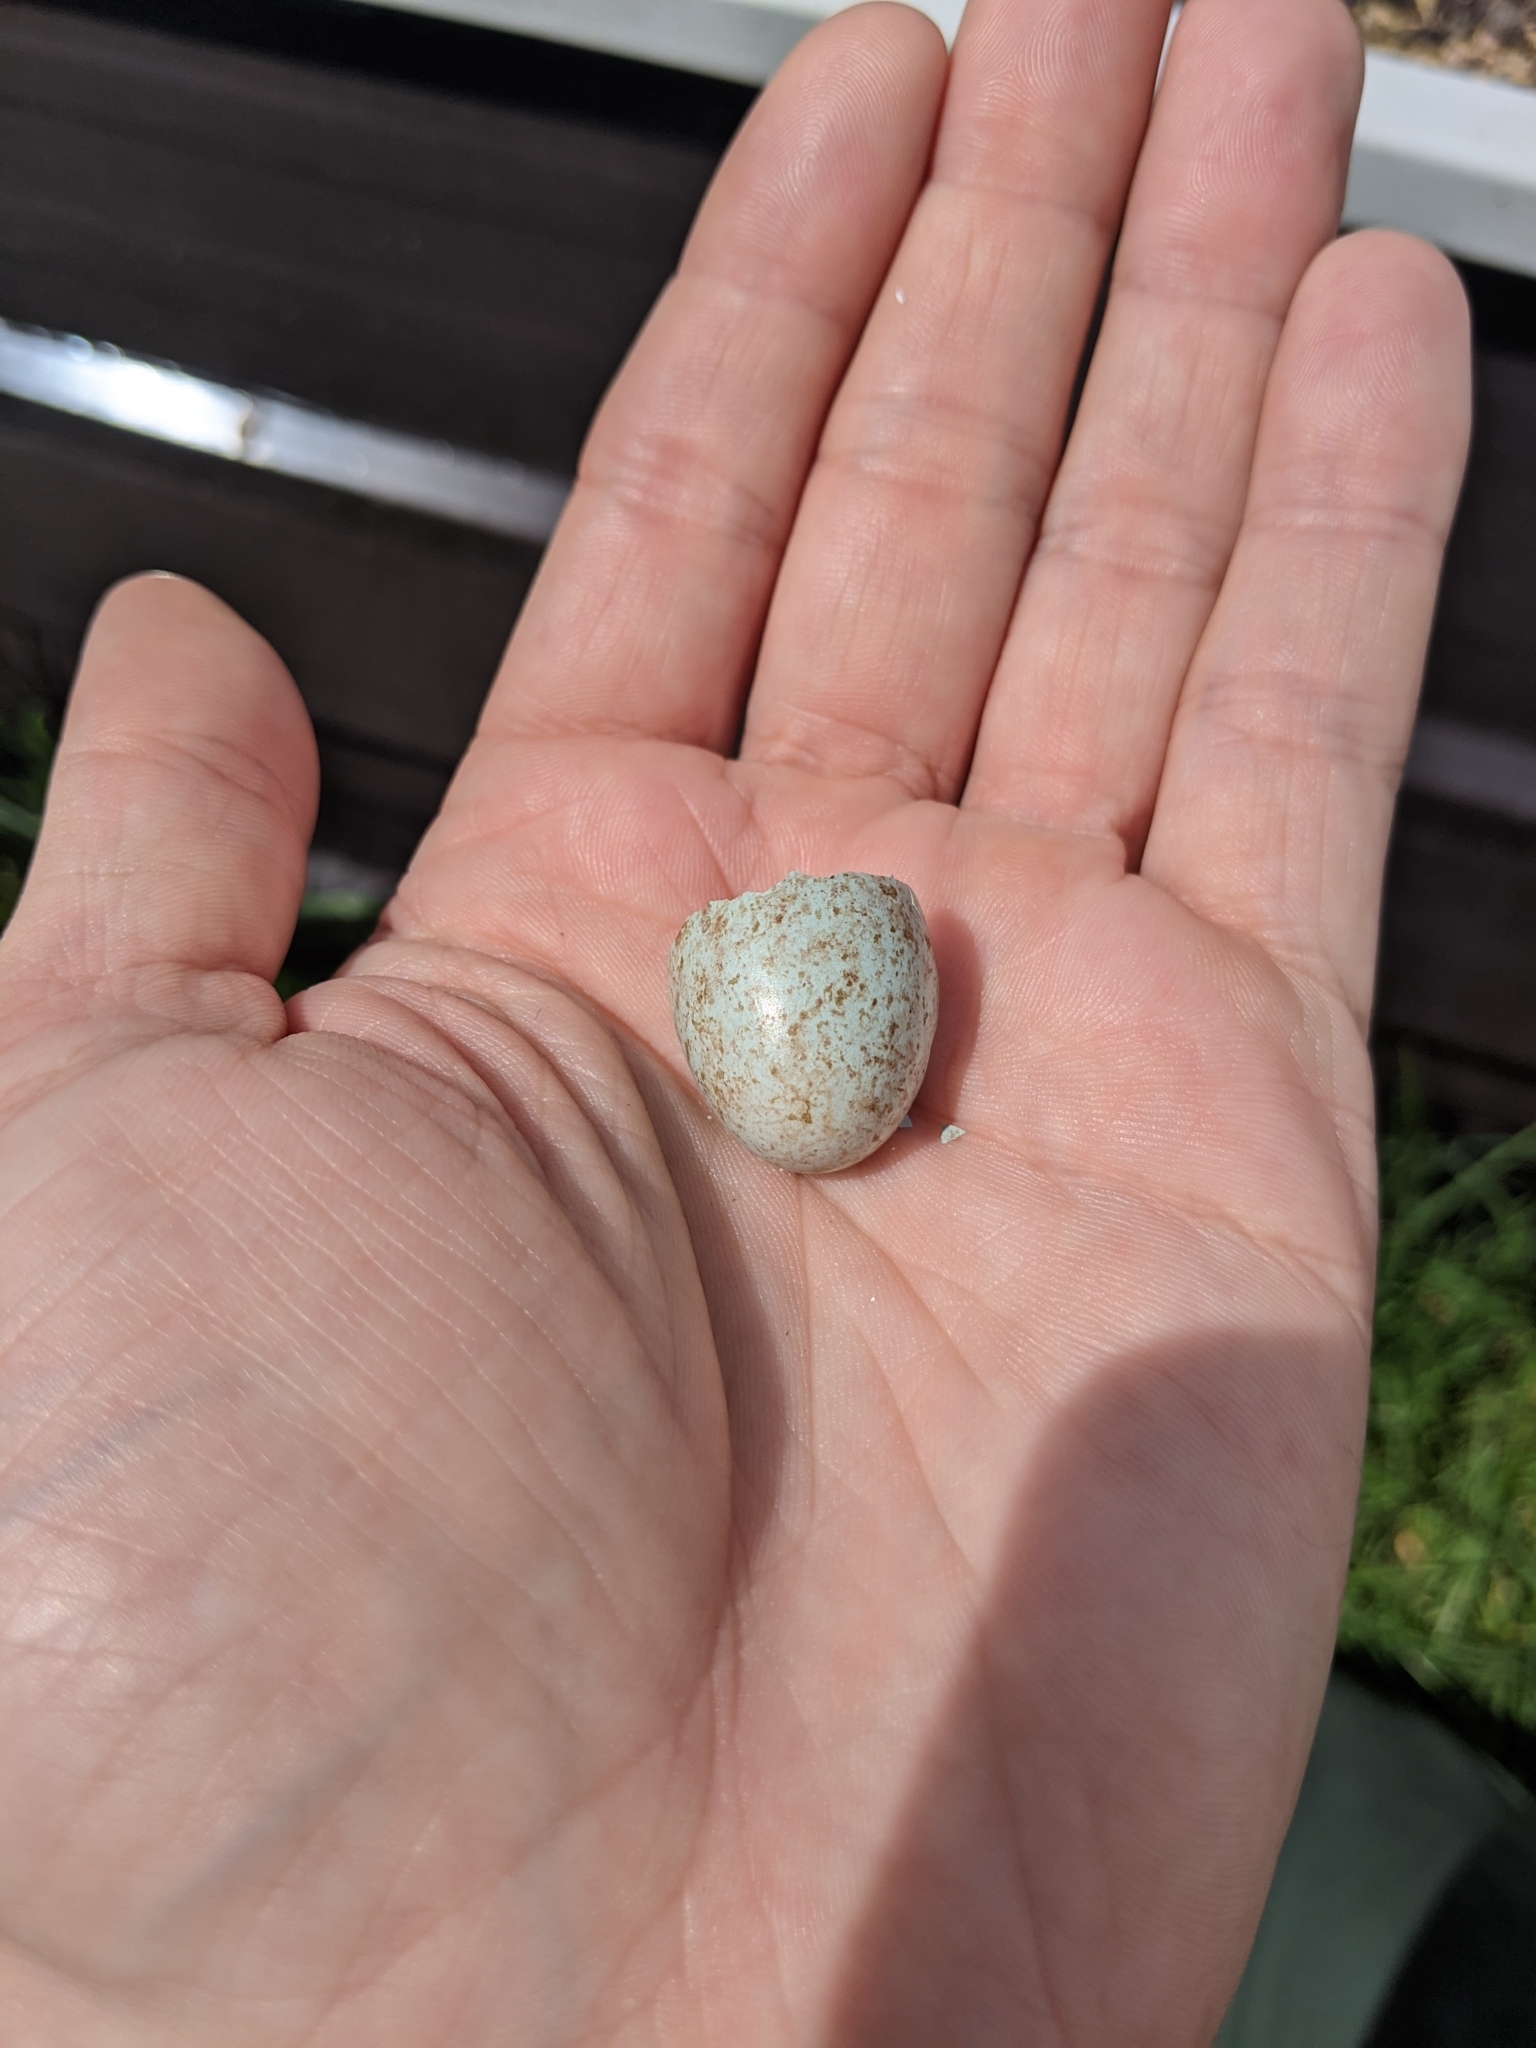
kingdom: Animalia
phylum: Chordata
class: Aves
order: Passeriformes
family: Turdidae
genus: Turdus
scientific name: Turdus merula
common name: Common blackbird
